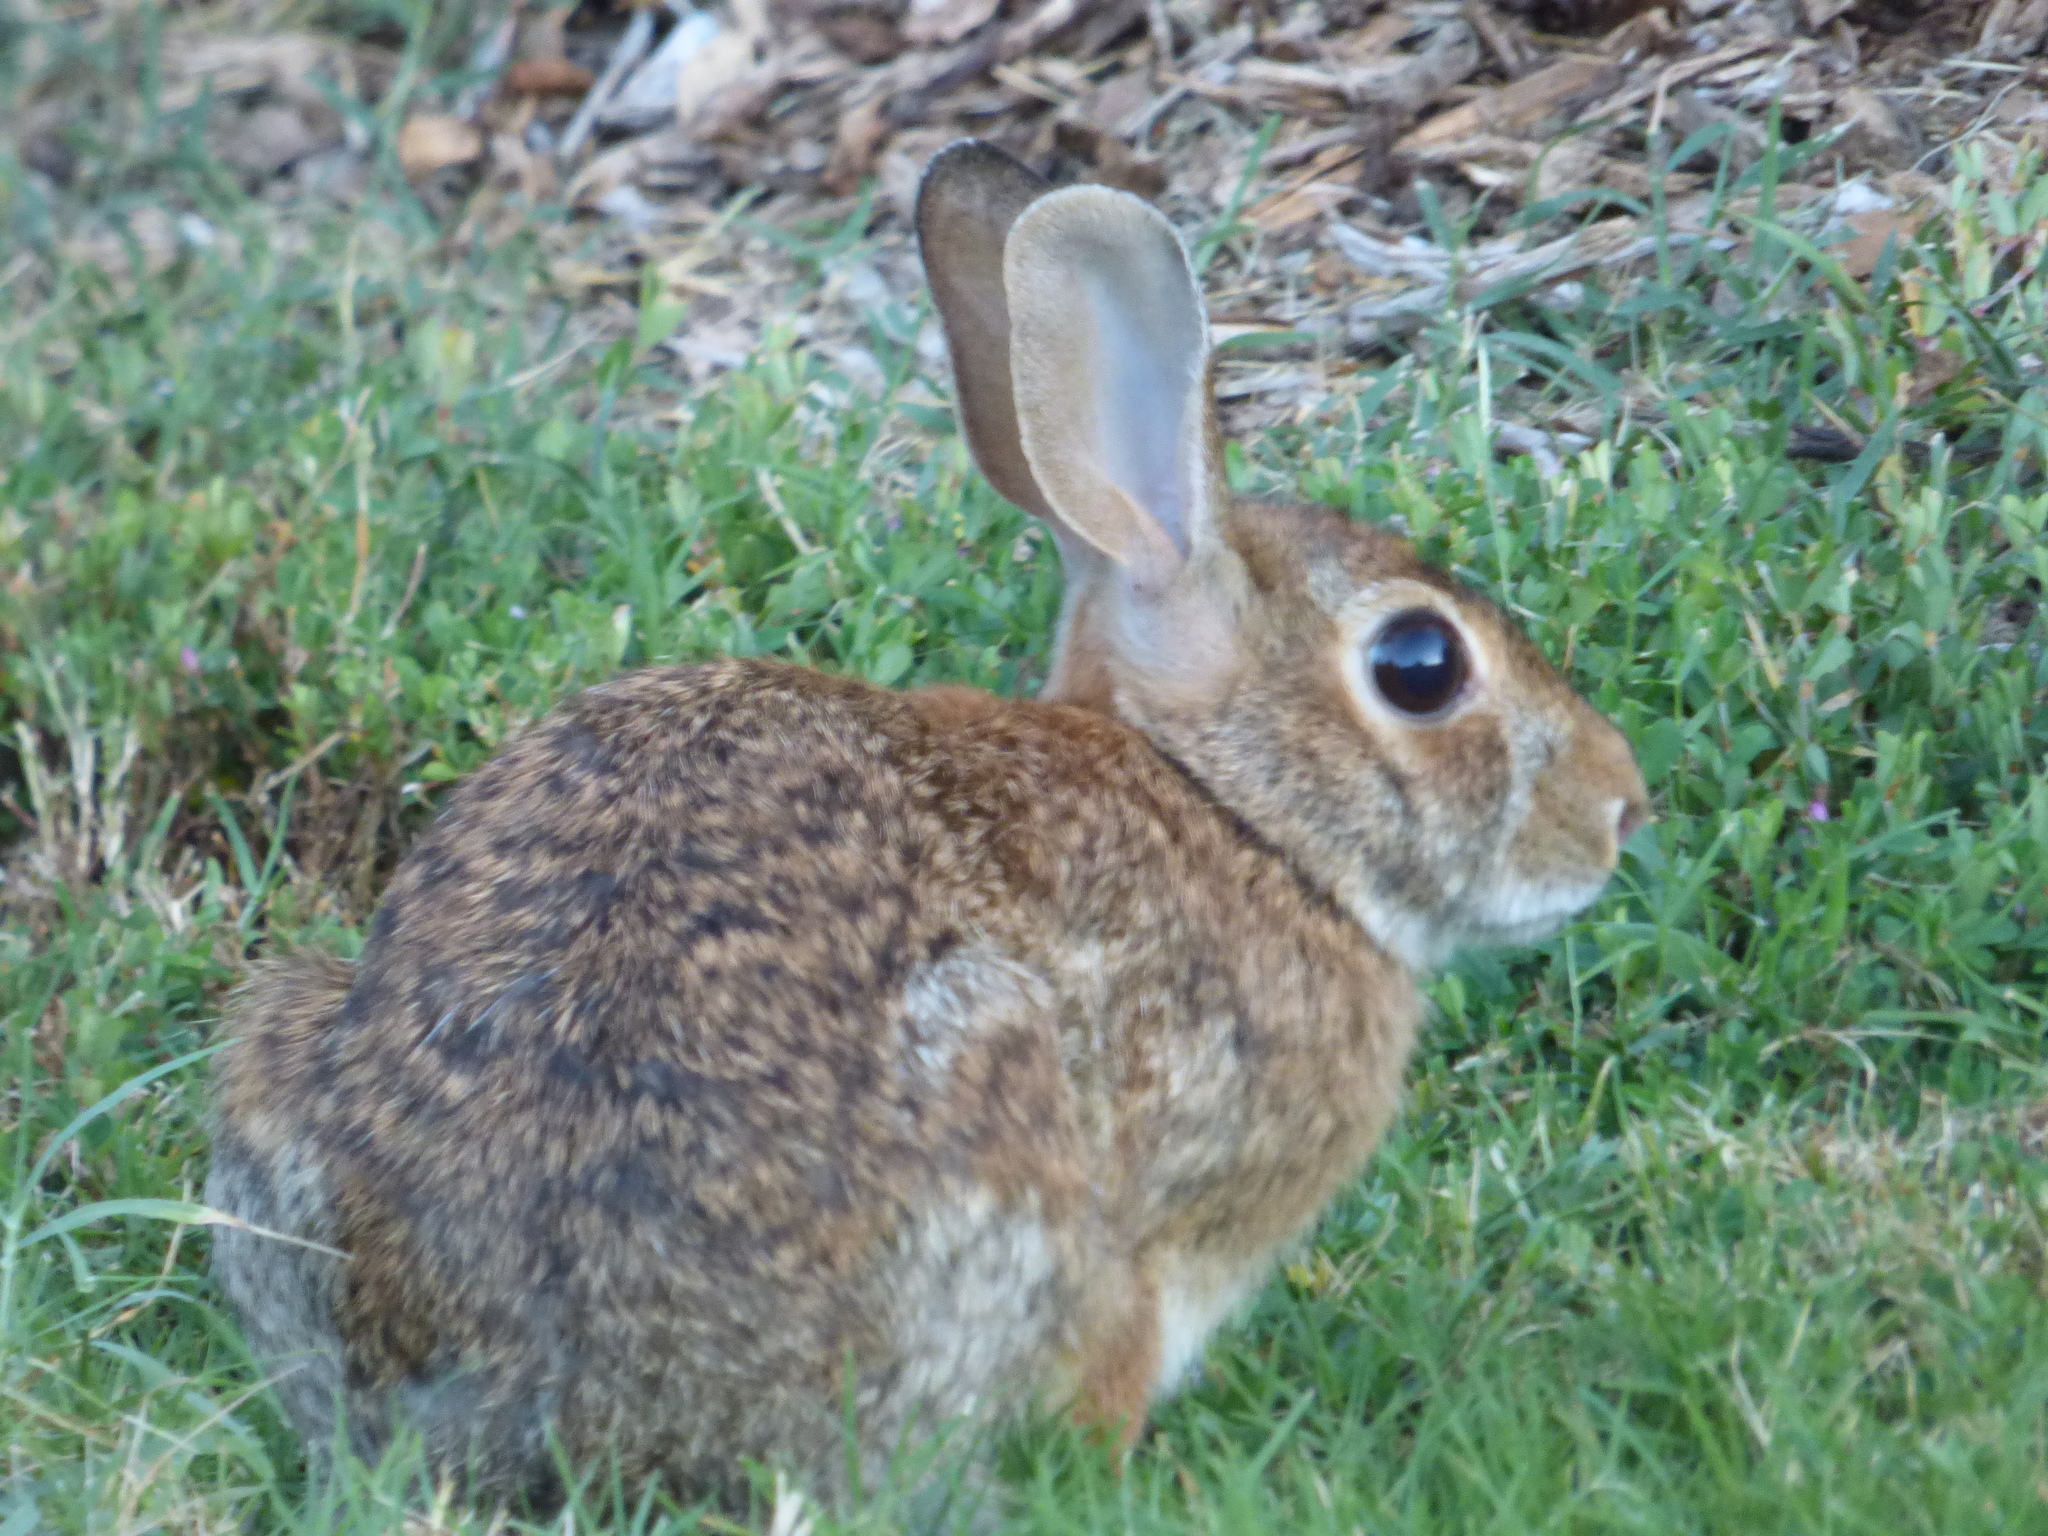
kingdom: Animalia
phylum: Chordata
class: Mammalia
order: Lagomorpha
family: Leporidae
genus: Sylvilagus
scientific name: Sylvilagus floridanus
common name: Eastern cottontail
